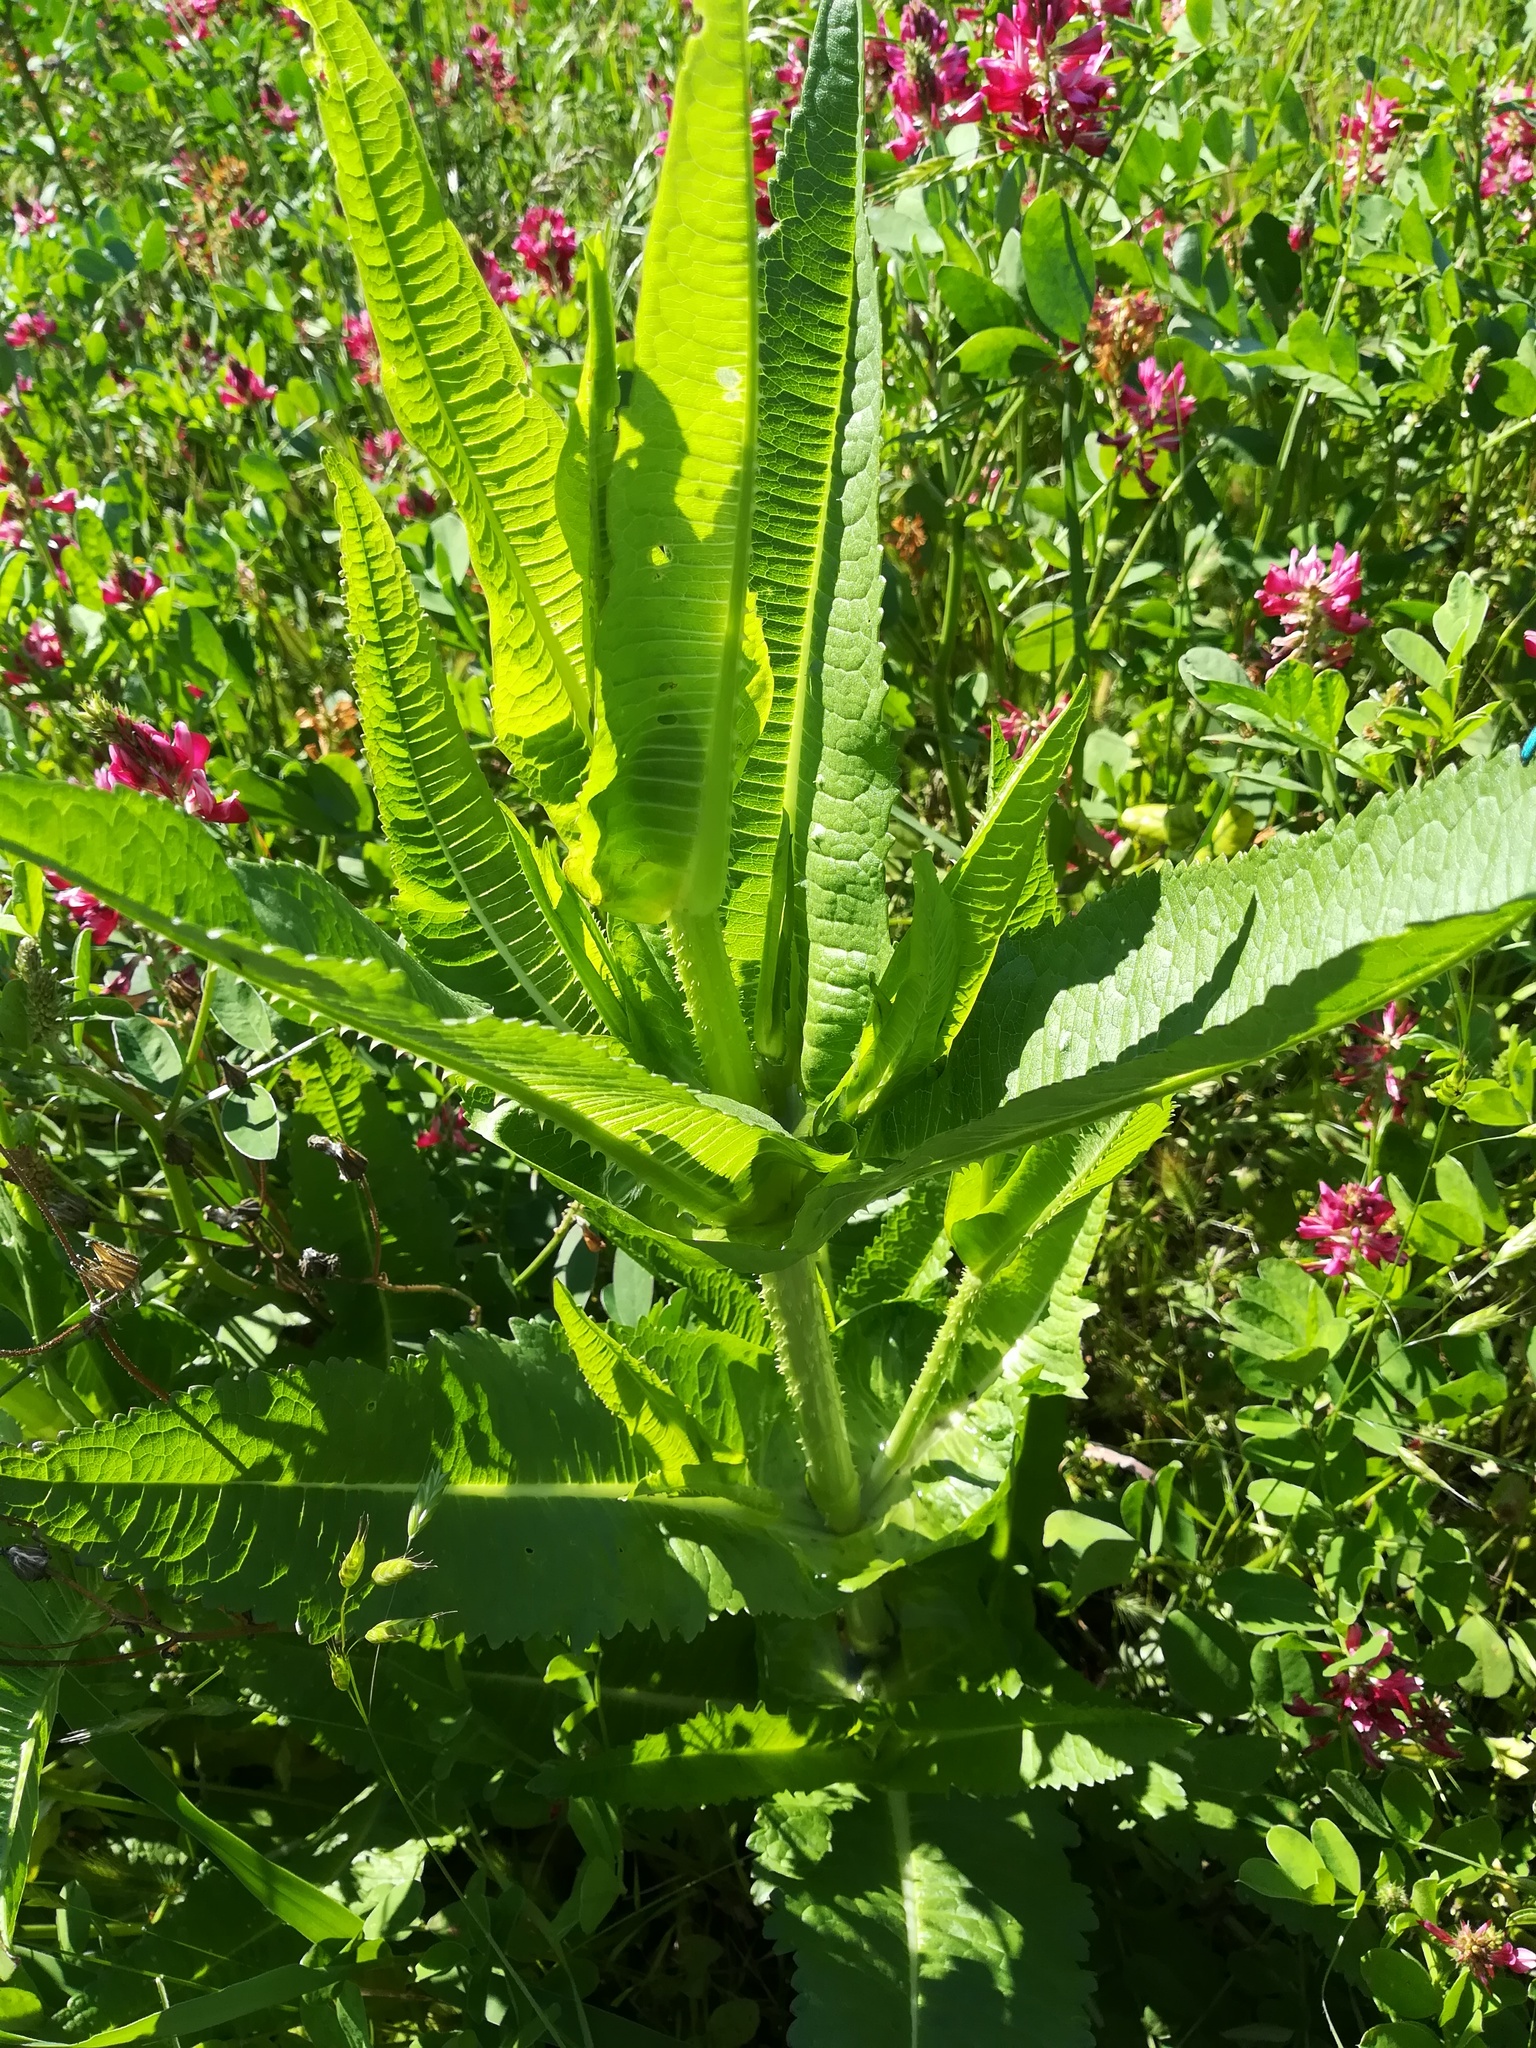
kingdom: Plantae
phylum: Tracheophyta
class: Magnoliopsida
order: Dipsacales
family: Caprifoliaceae
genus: Dipsacus
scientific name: Dipsacus fullonum
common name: Teasel
